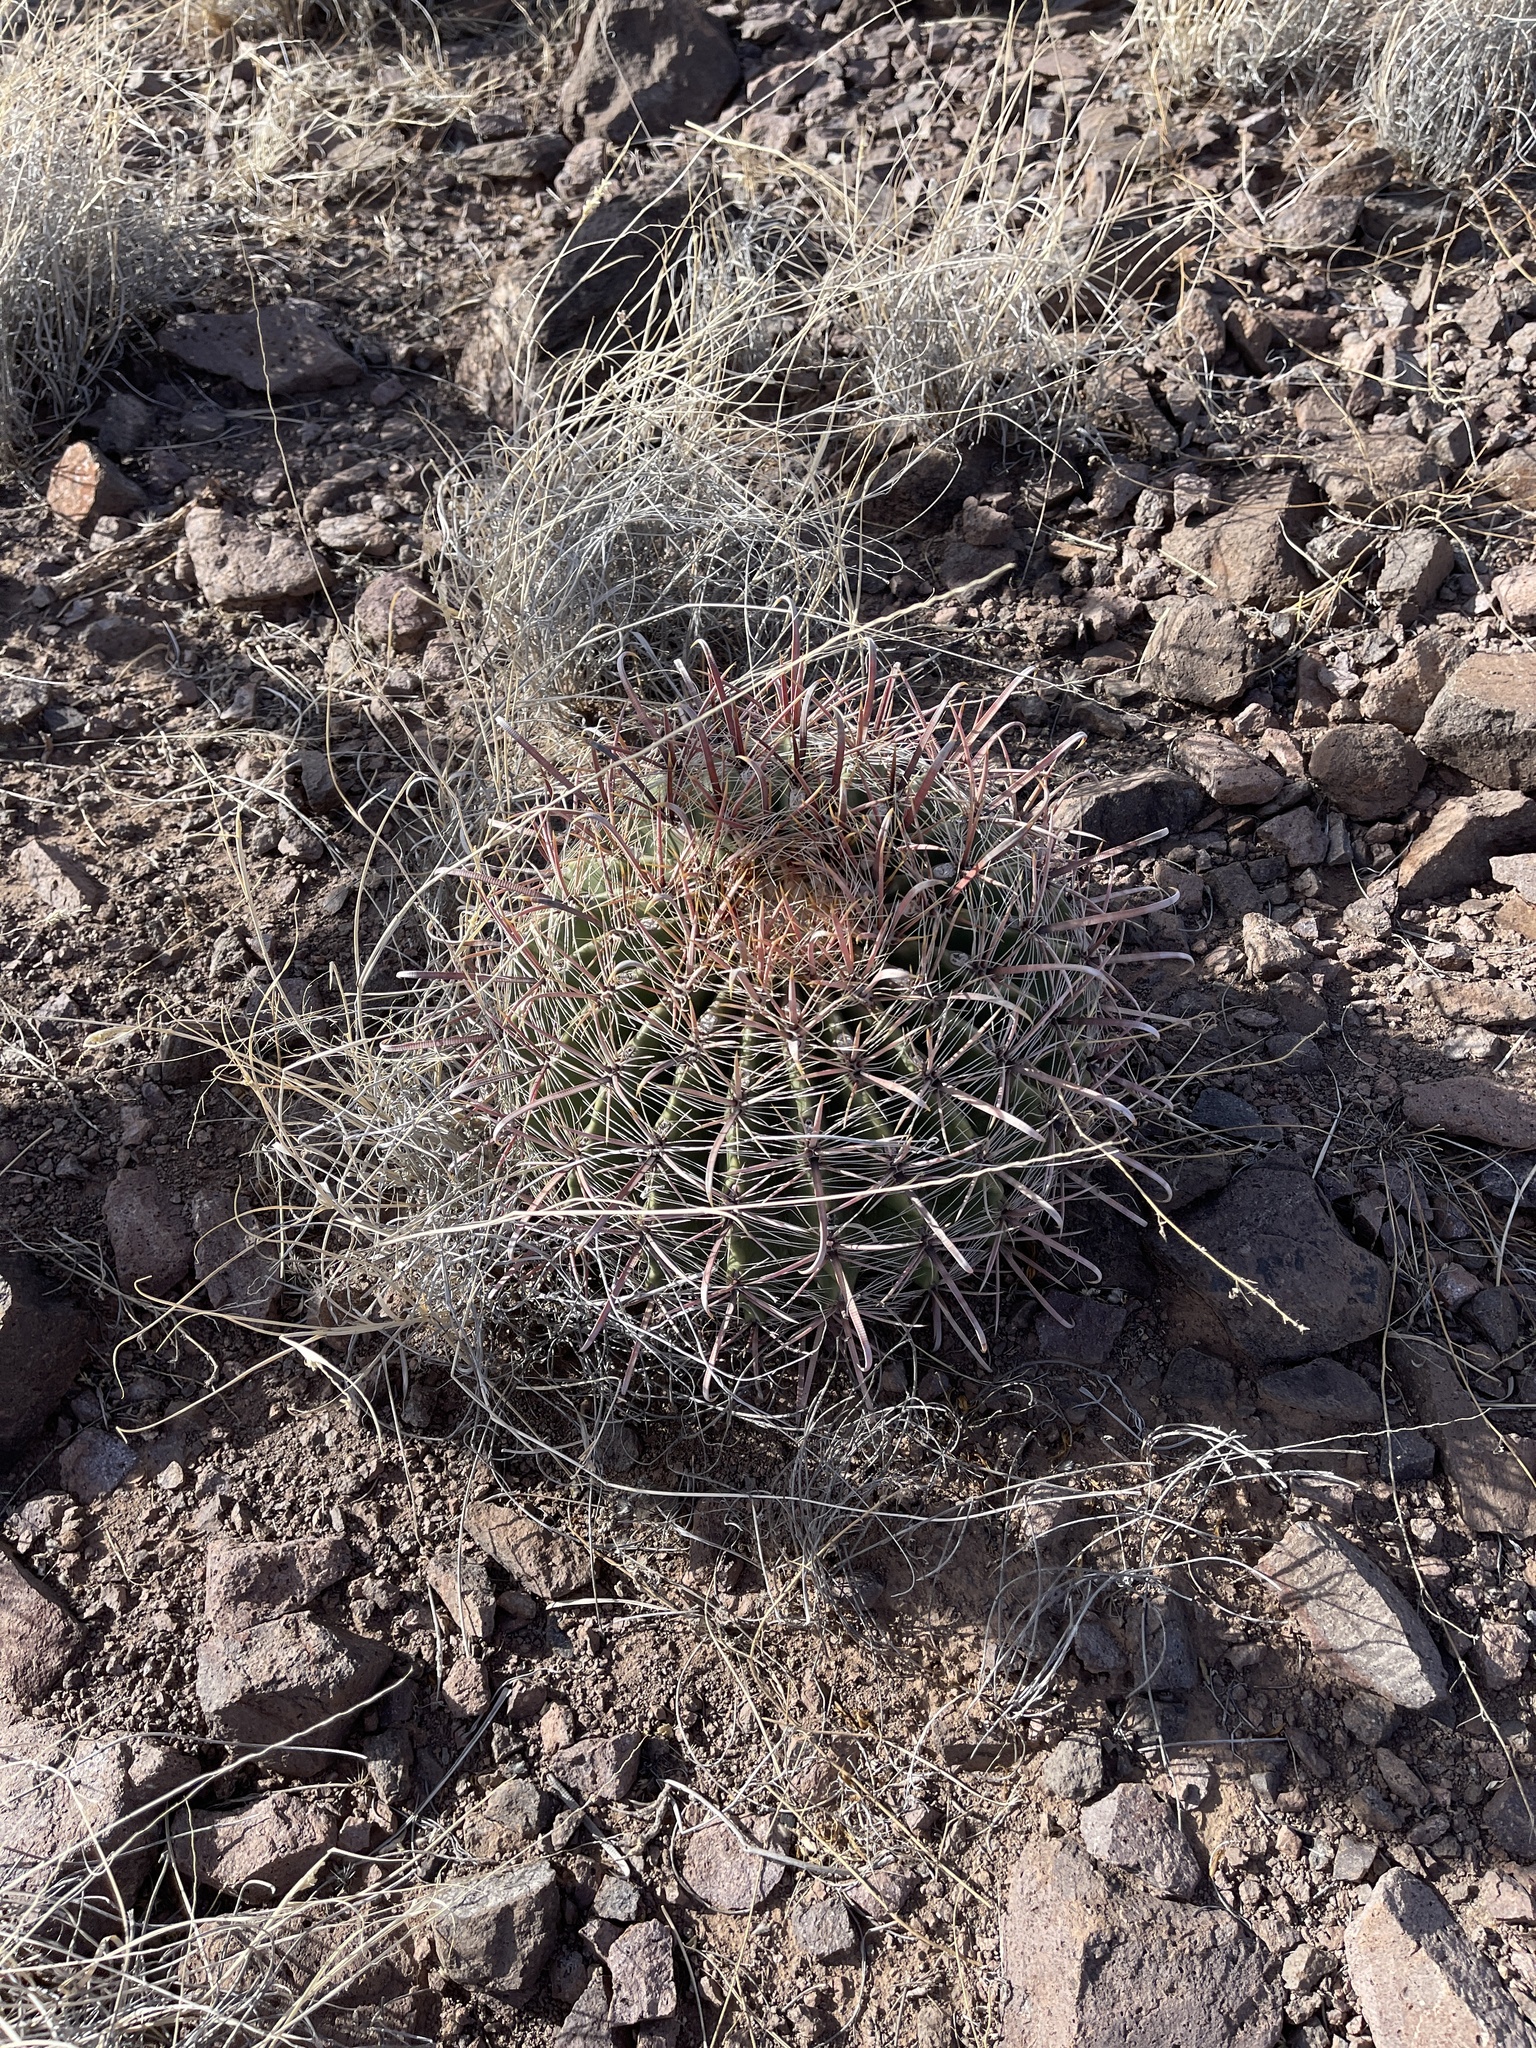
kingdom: Plantae
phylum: Tracheophyta
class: Magnoliopsida
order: Caryophyllales
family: Cactaceae
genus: Ferocactus
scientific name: Ferocactus wislizeni
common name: Candy barrel cactus
